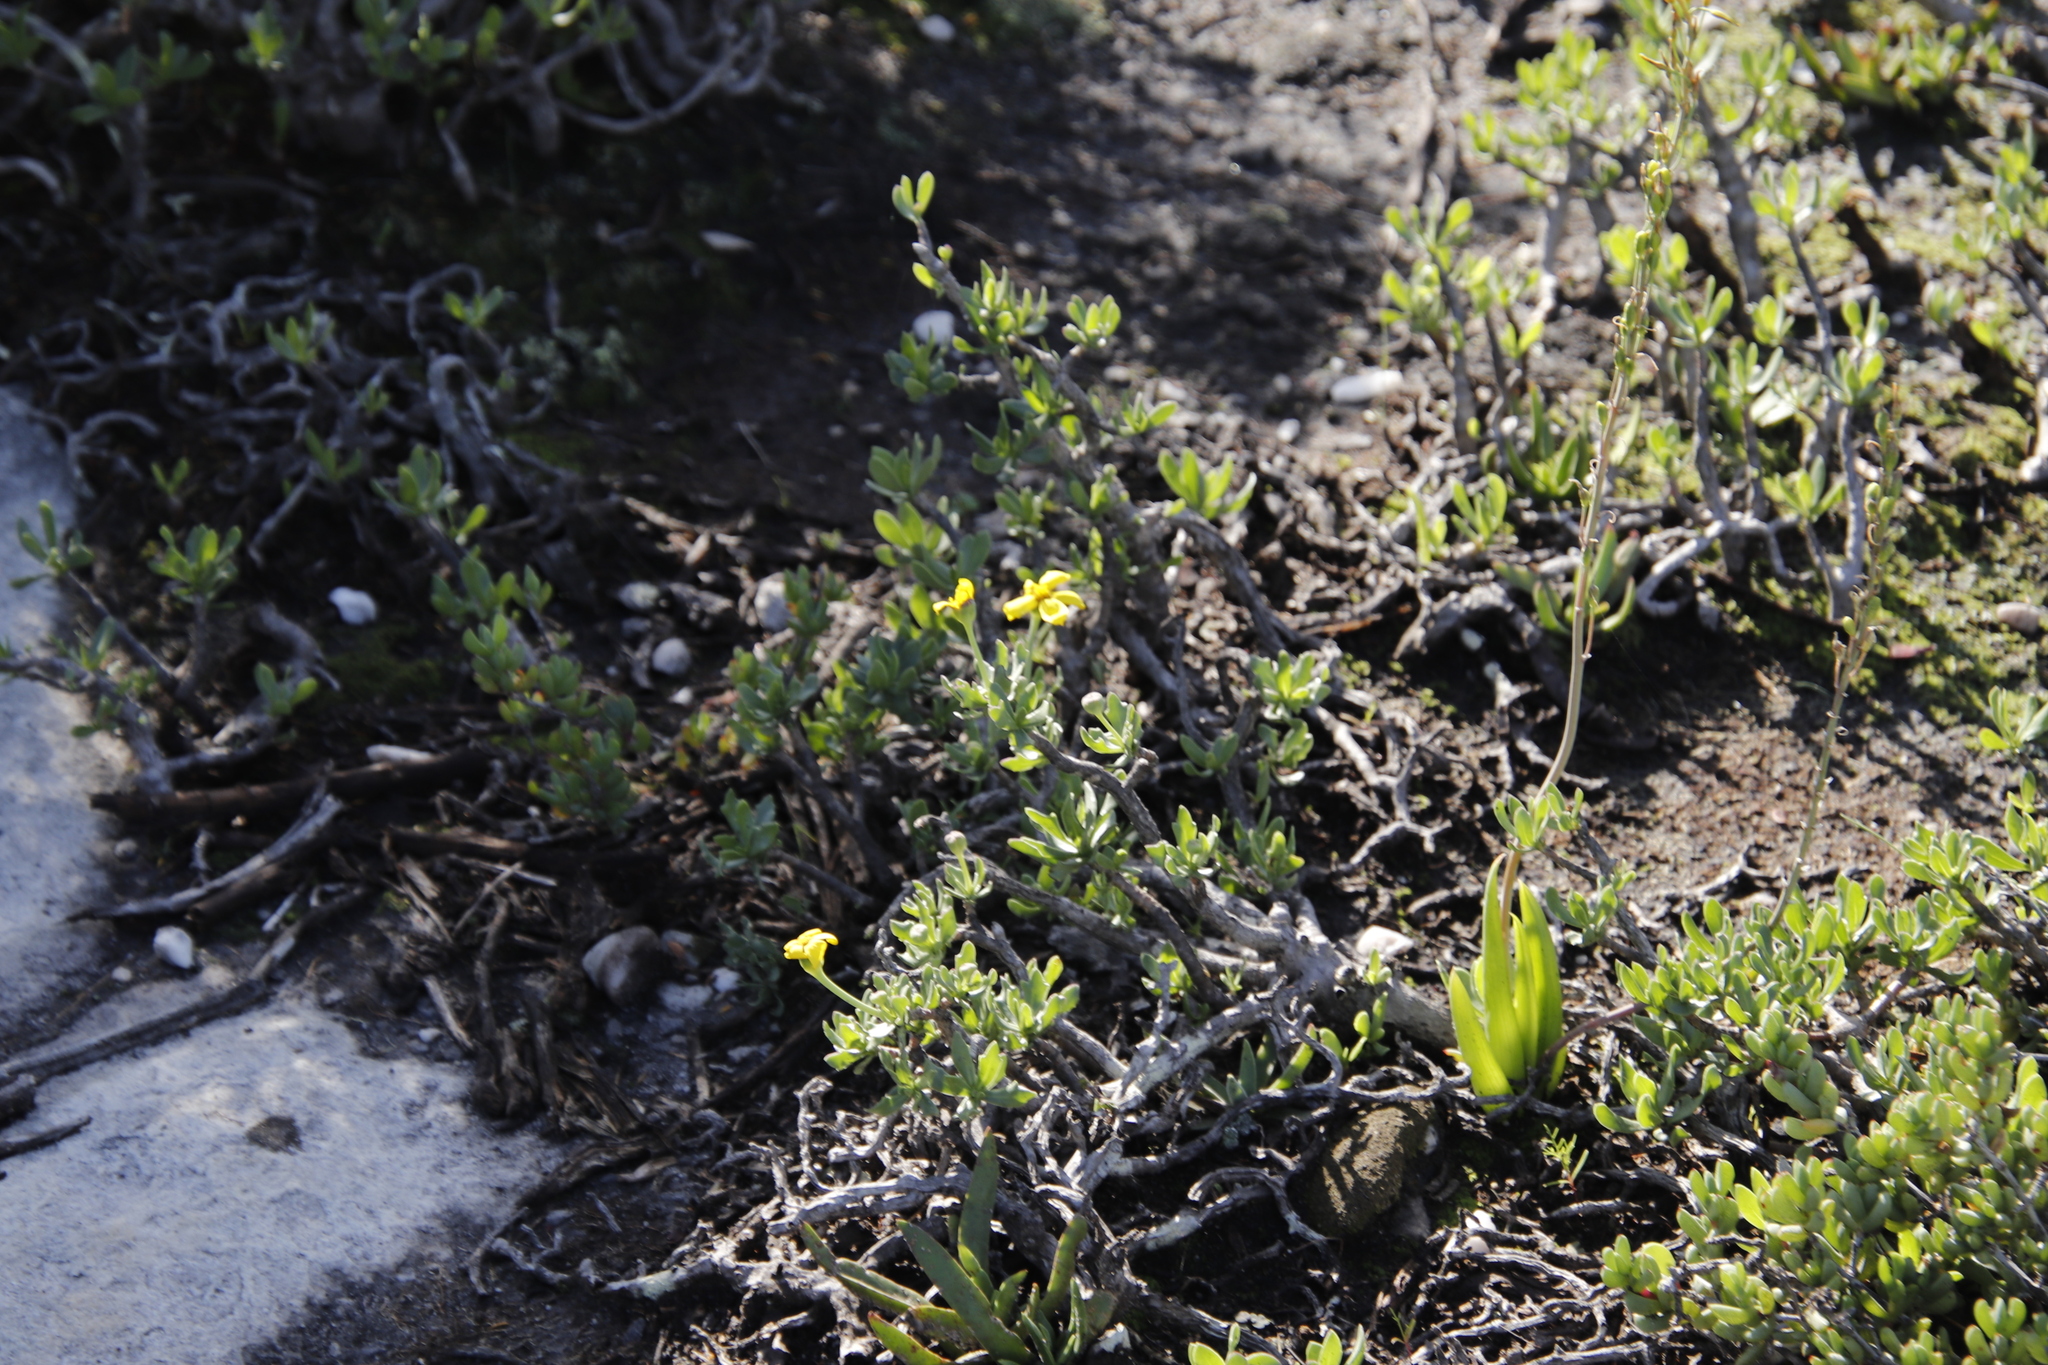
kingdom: Plantae
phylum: Tracheophyta
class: Magnoliopsida
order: Asterales
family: Asteraceae
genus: Othonna
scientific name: Othonna arborescens
